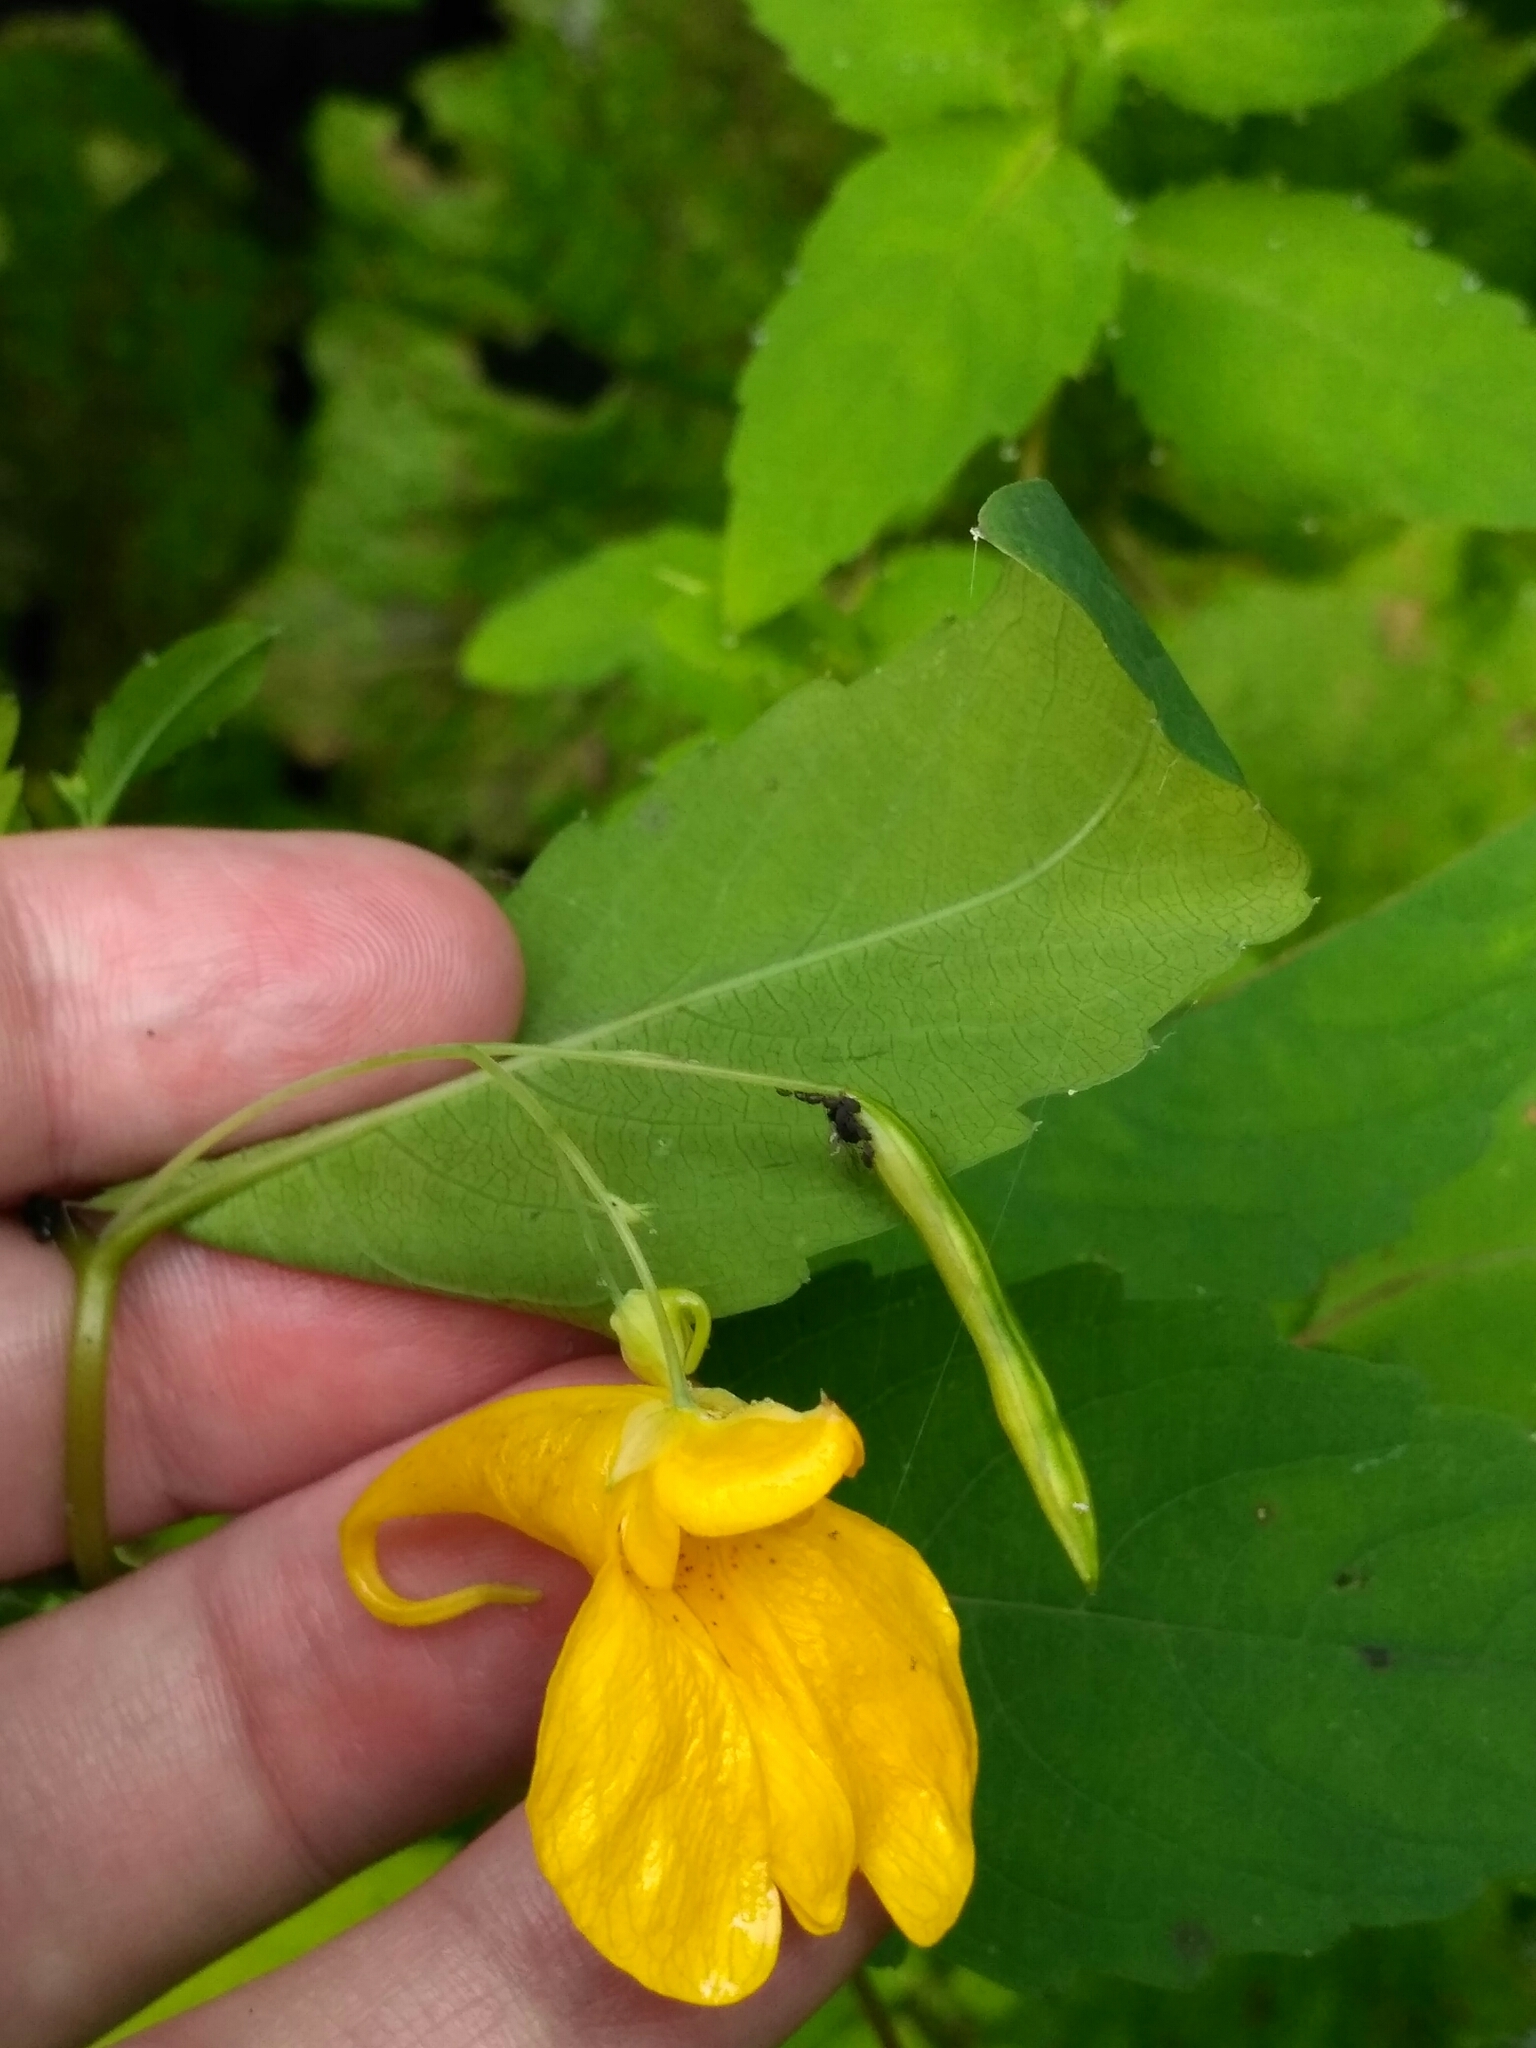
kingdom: Plantae
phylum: Tracheophyta
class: Magnoliopsida
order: Ericales
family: Balsaminaceae
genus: Impatiens
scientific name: Impatiens noli-tangere
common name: Touch-me-not balsam
